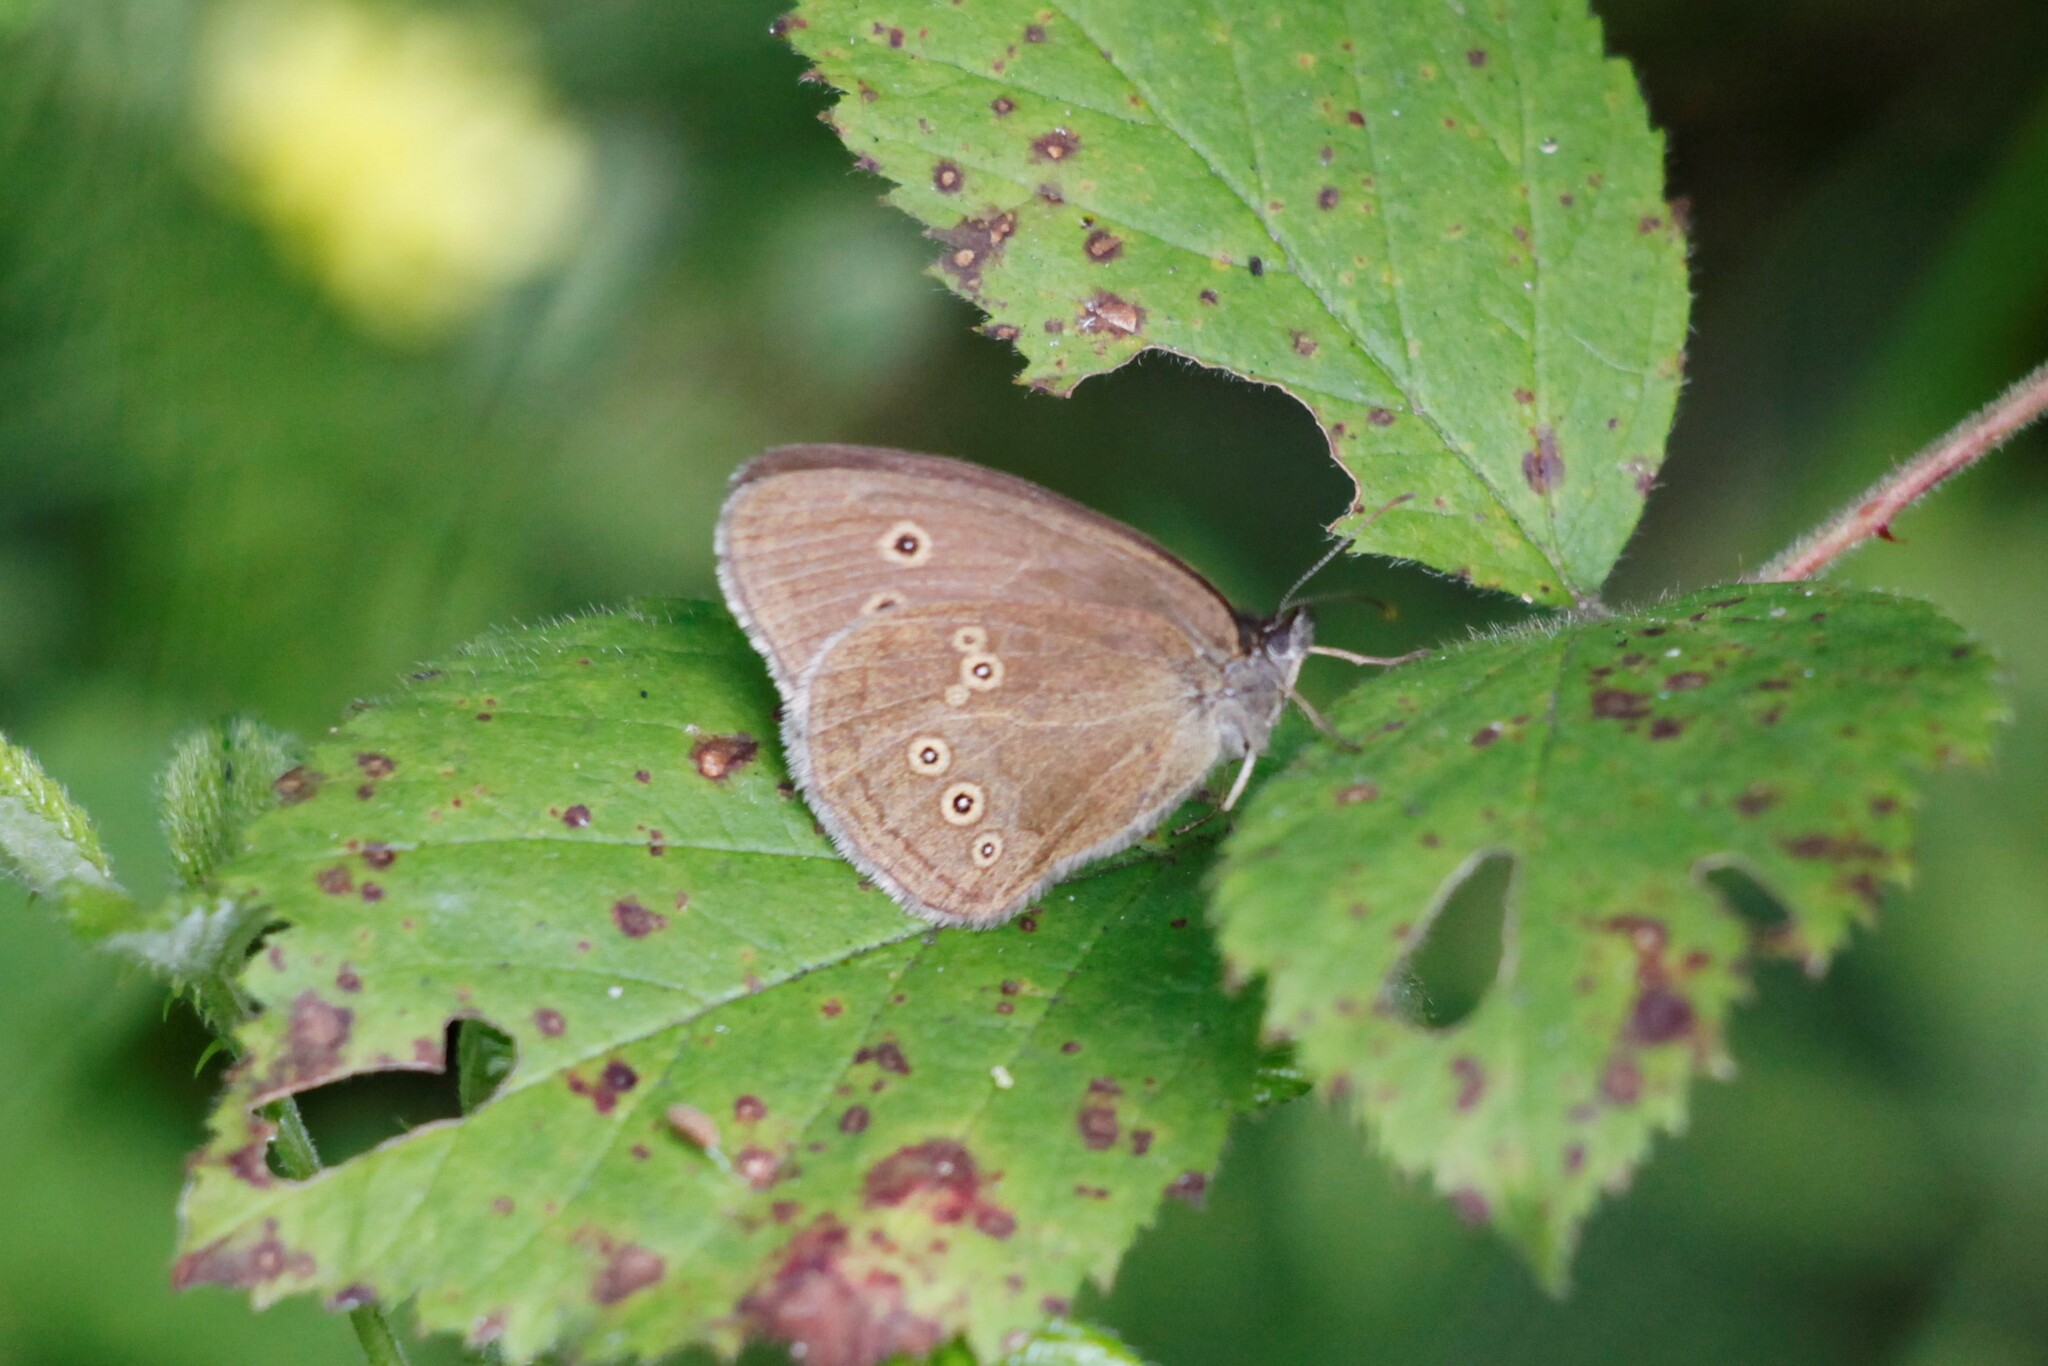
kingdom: Animalia
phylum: Arthropoda
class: Insecta
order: Lepidoptera
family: Nymphalidae
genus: Aphantopus
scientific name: Aphantopus hyperantus
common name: Ringlet
